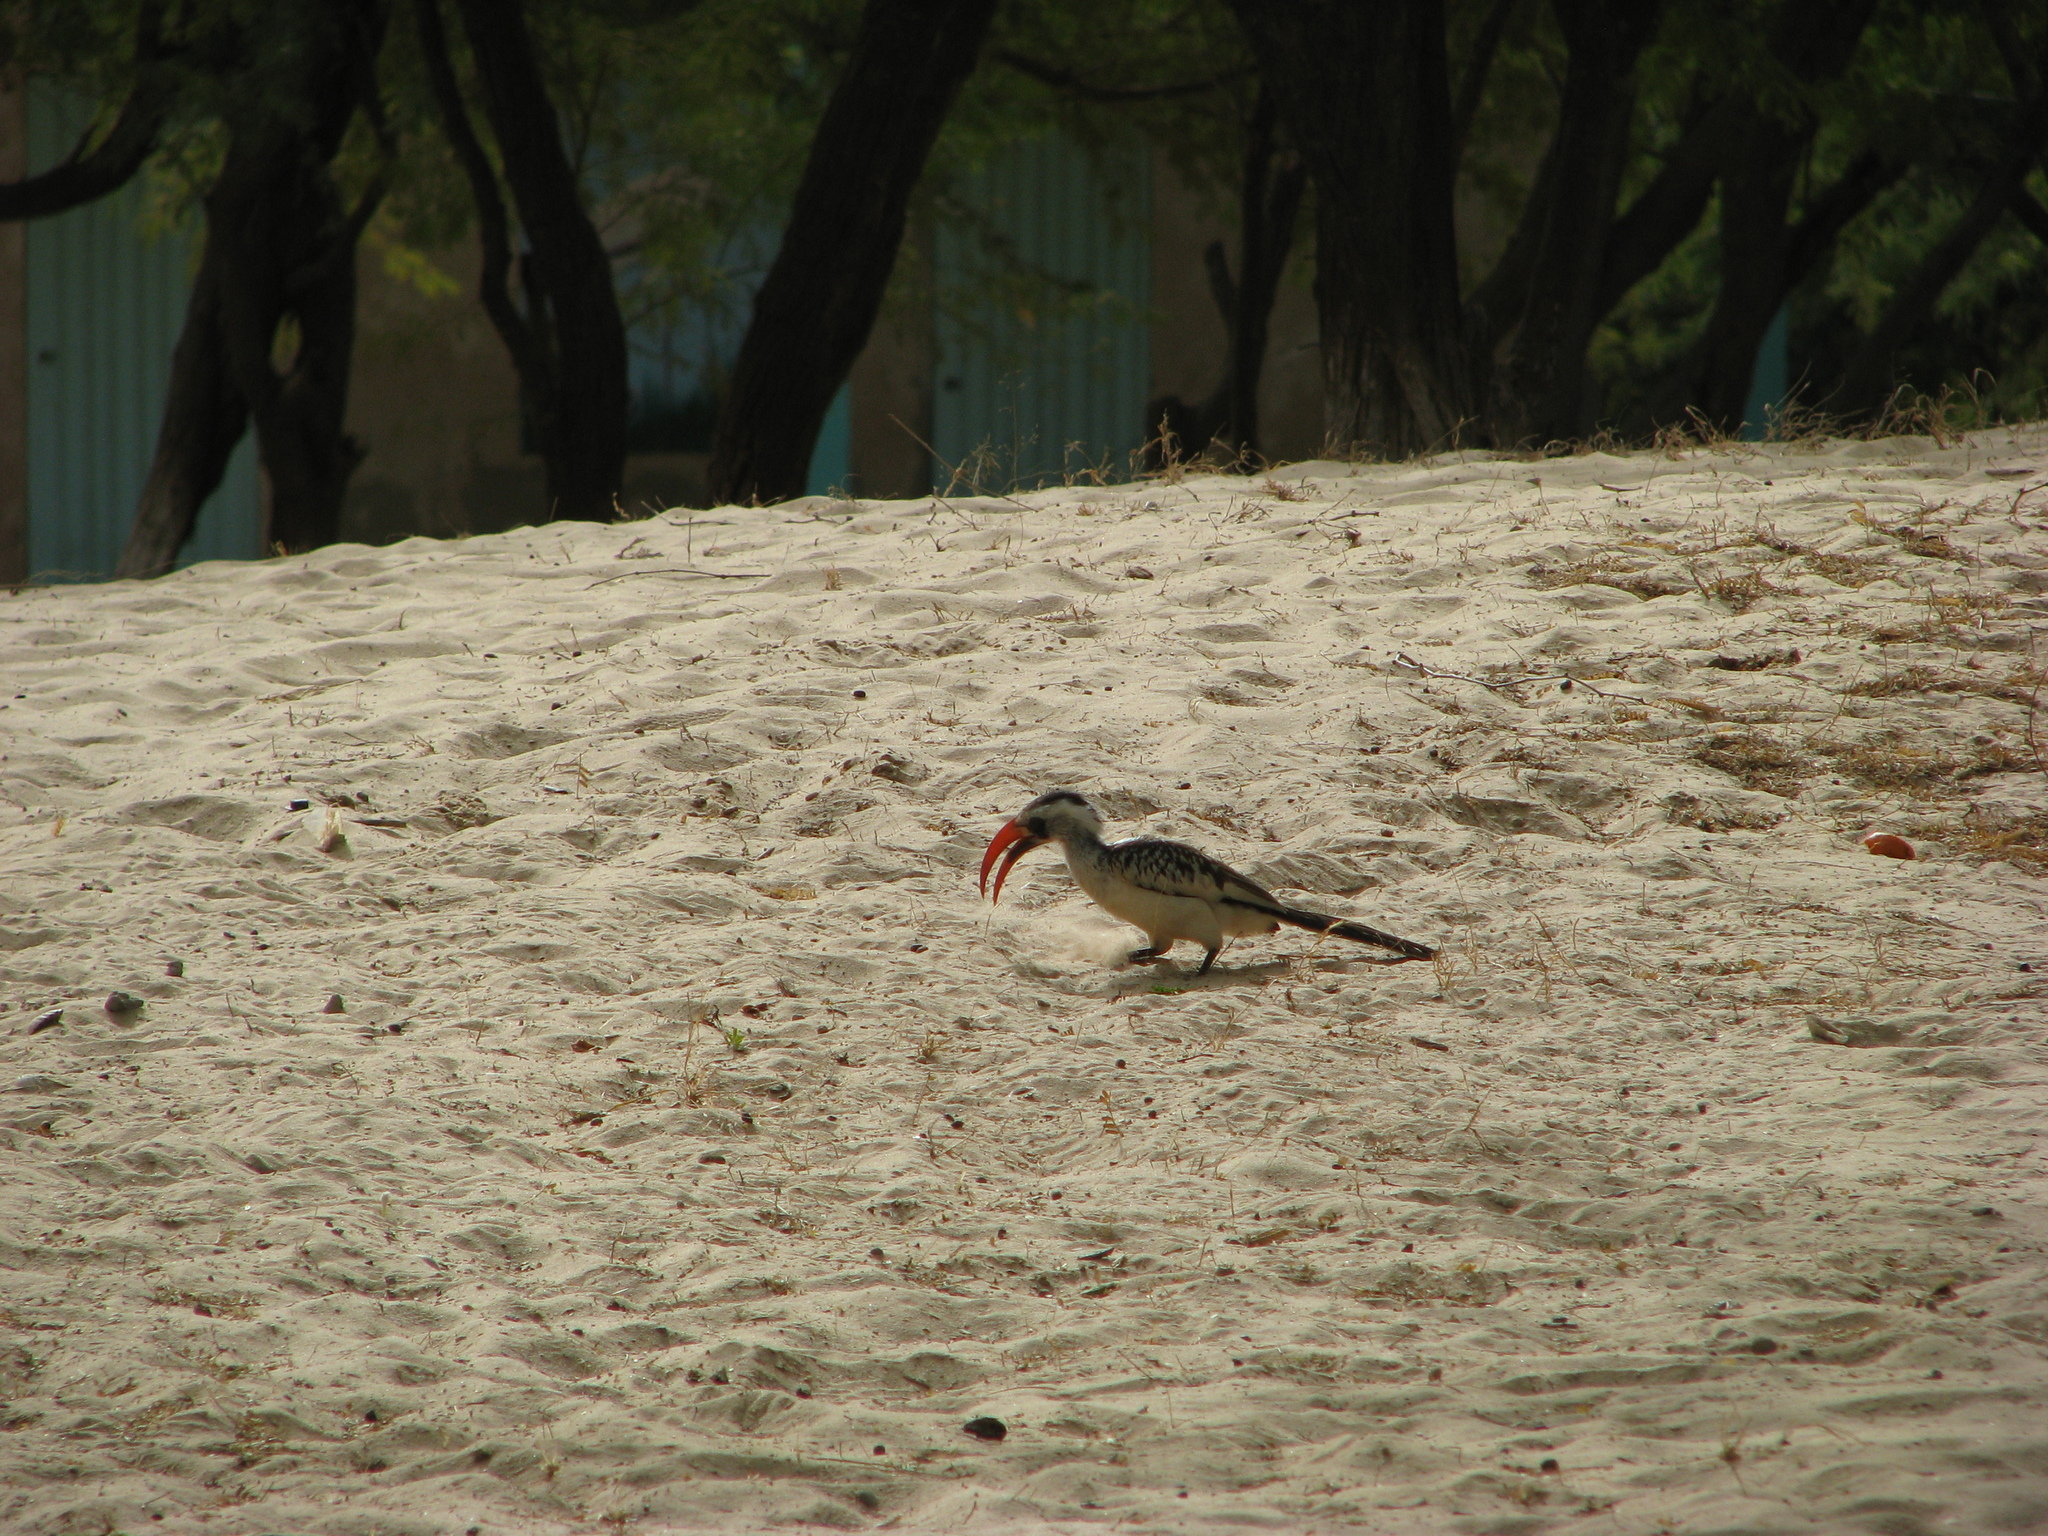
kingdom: Animalia
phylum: Chordata
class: Aves
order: Bucerotiformes
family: Bucerotidae
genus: Tockus
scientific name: Tockus kempi
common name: Western red-billed hornbill
